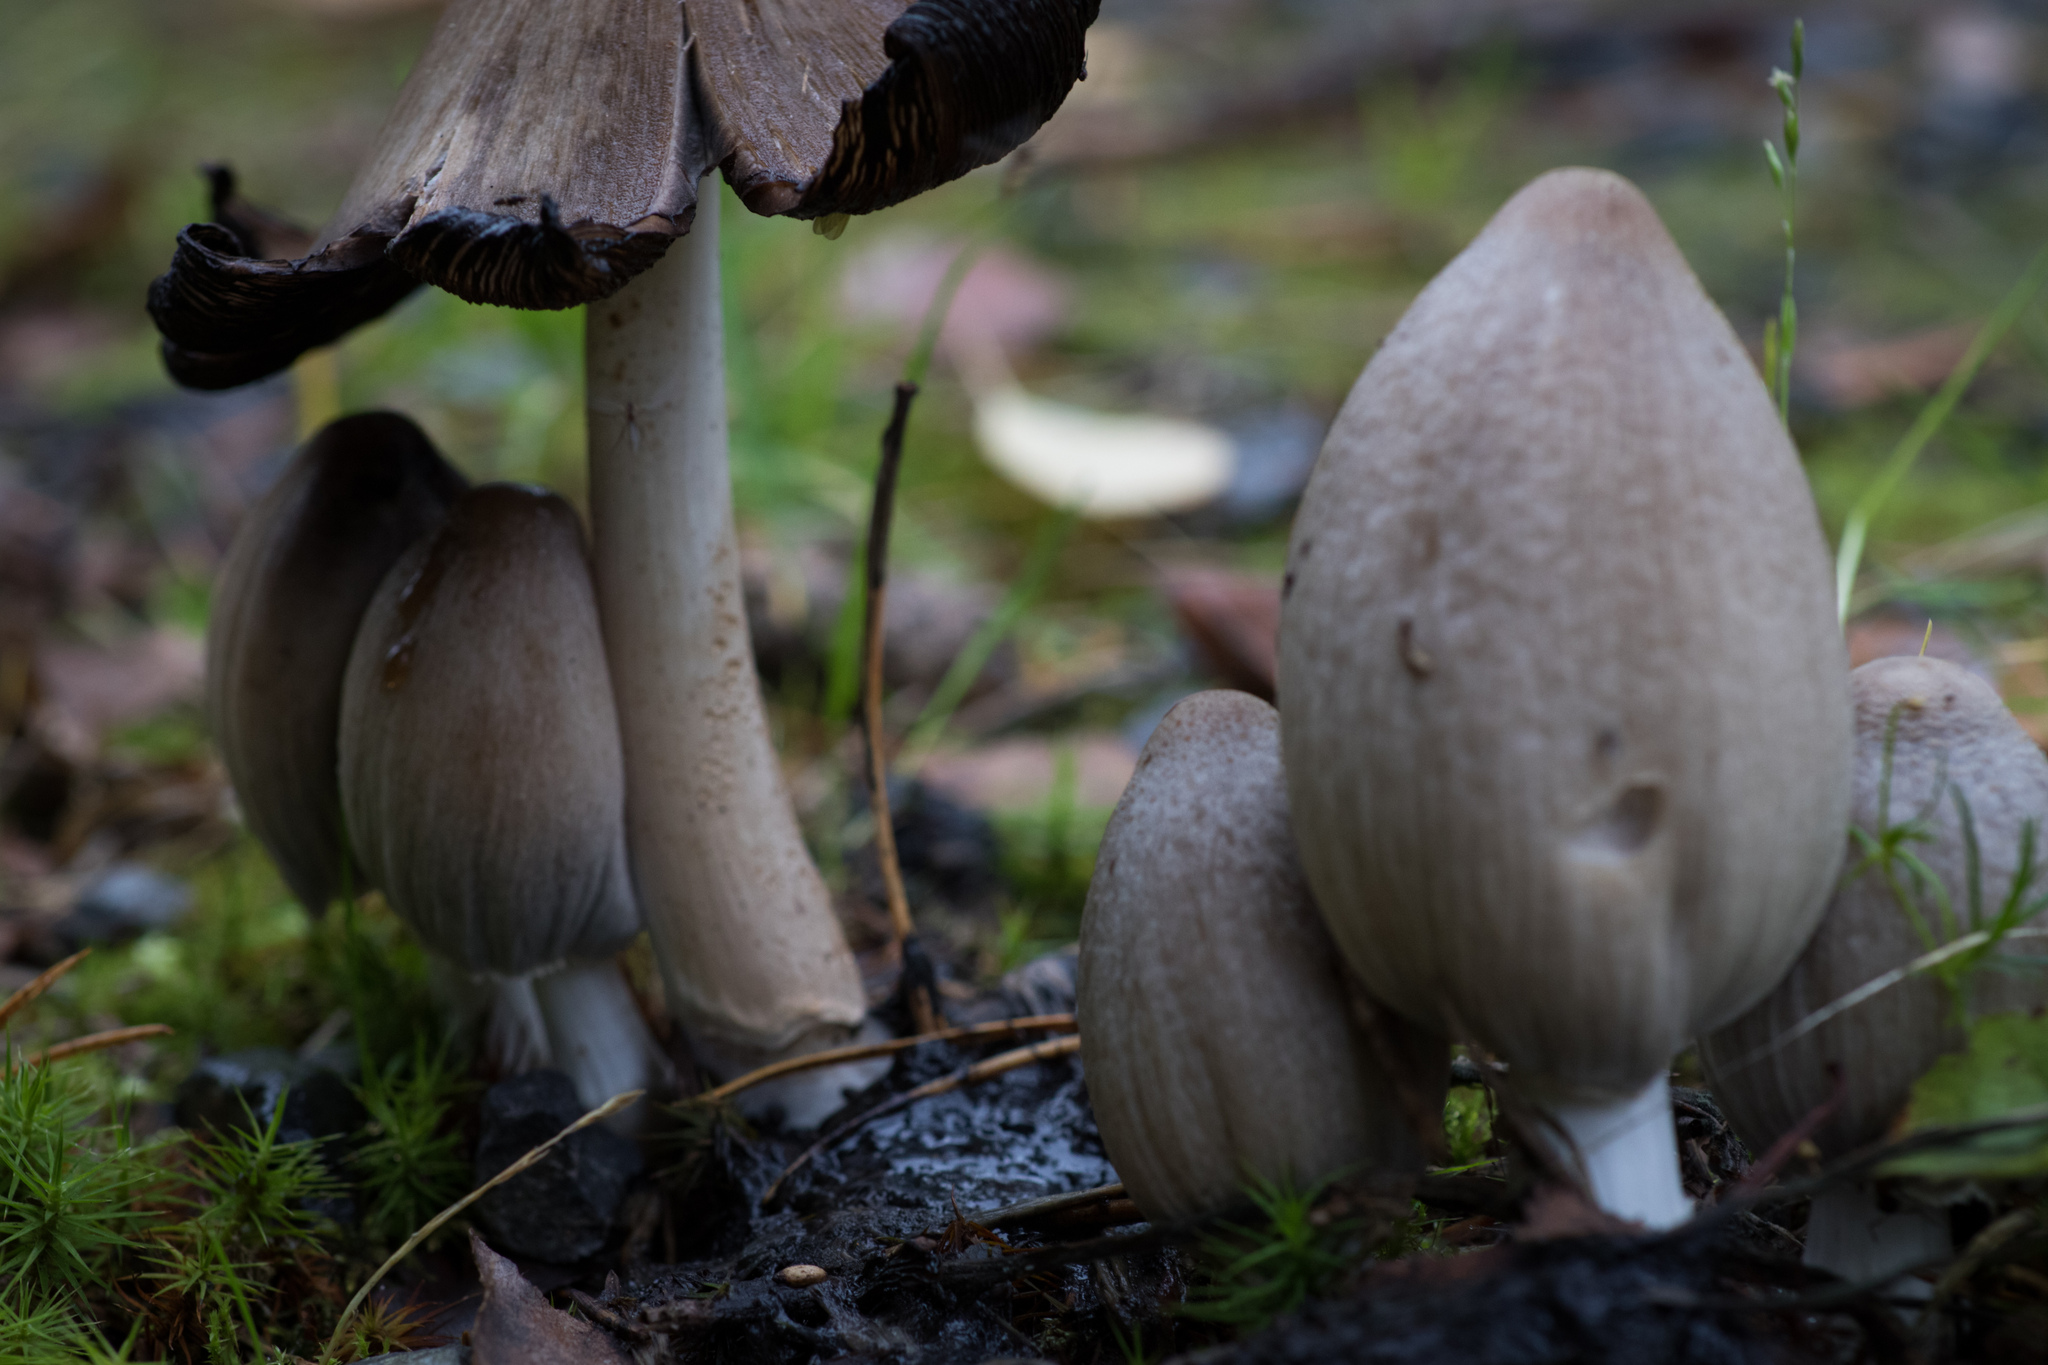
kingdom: Fungi
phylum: Basidiomycota
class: Agaricomycetes
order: Agaricales
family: Psathyrellaceae
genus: Coprinopsis
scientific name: Coprinopsis atramentaria
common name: Common ink-cap
